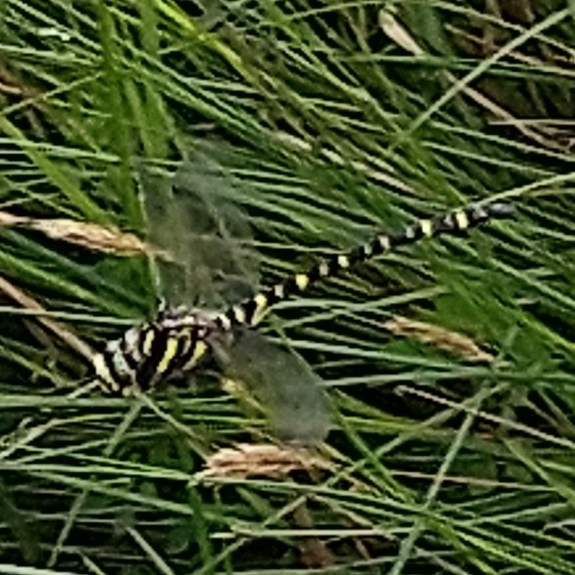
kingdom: Animalia
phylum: Arthropoda
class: Insecta
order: Odonata
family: Cordulegastridae
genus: Cordulegaster
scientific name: Cordulegaster boltonii
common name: Golden-ringed dragonfly
